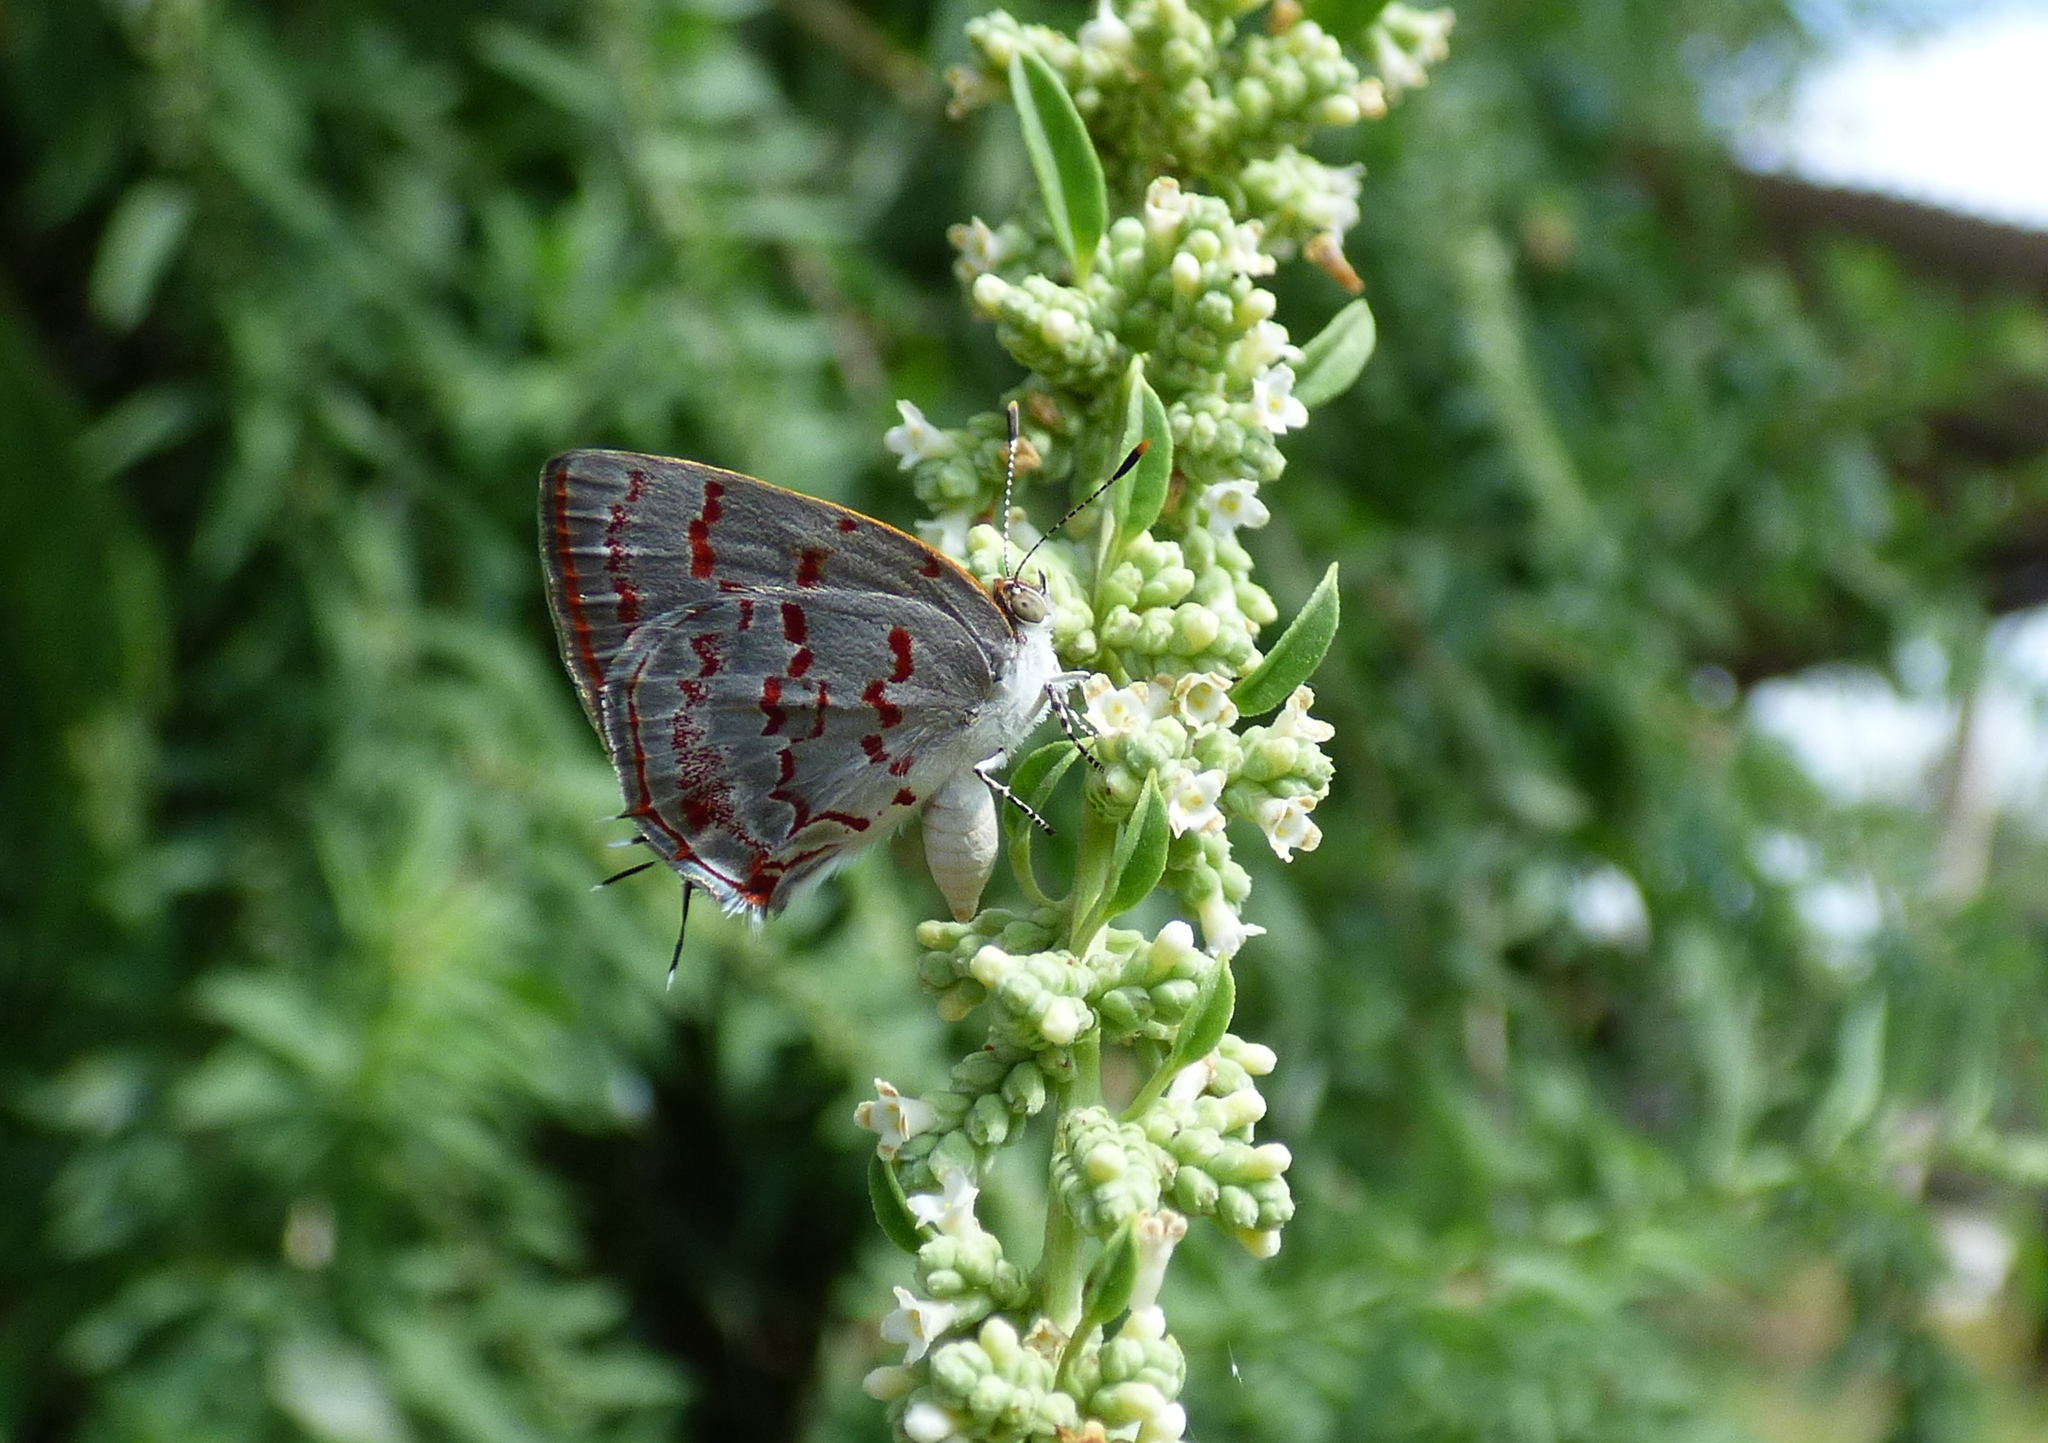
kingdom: Animalia
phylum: Arthropoda
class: Insecta
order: Lepidoptera
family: Lycaenidae
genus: Thecla
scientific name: Thecla cruenta
